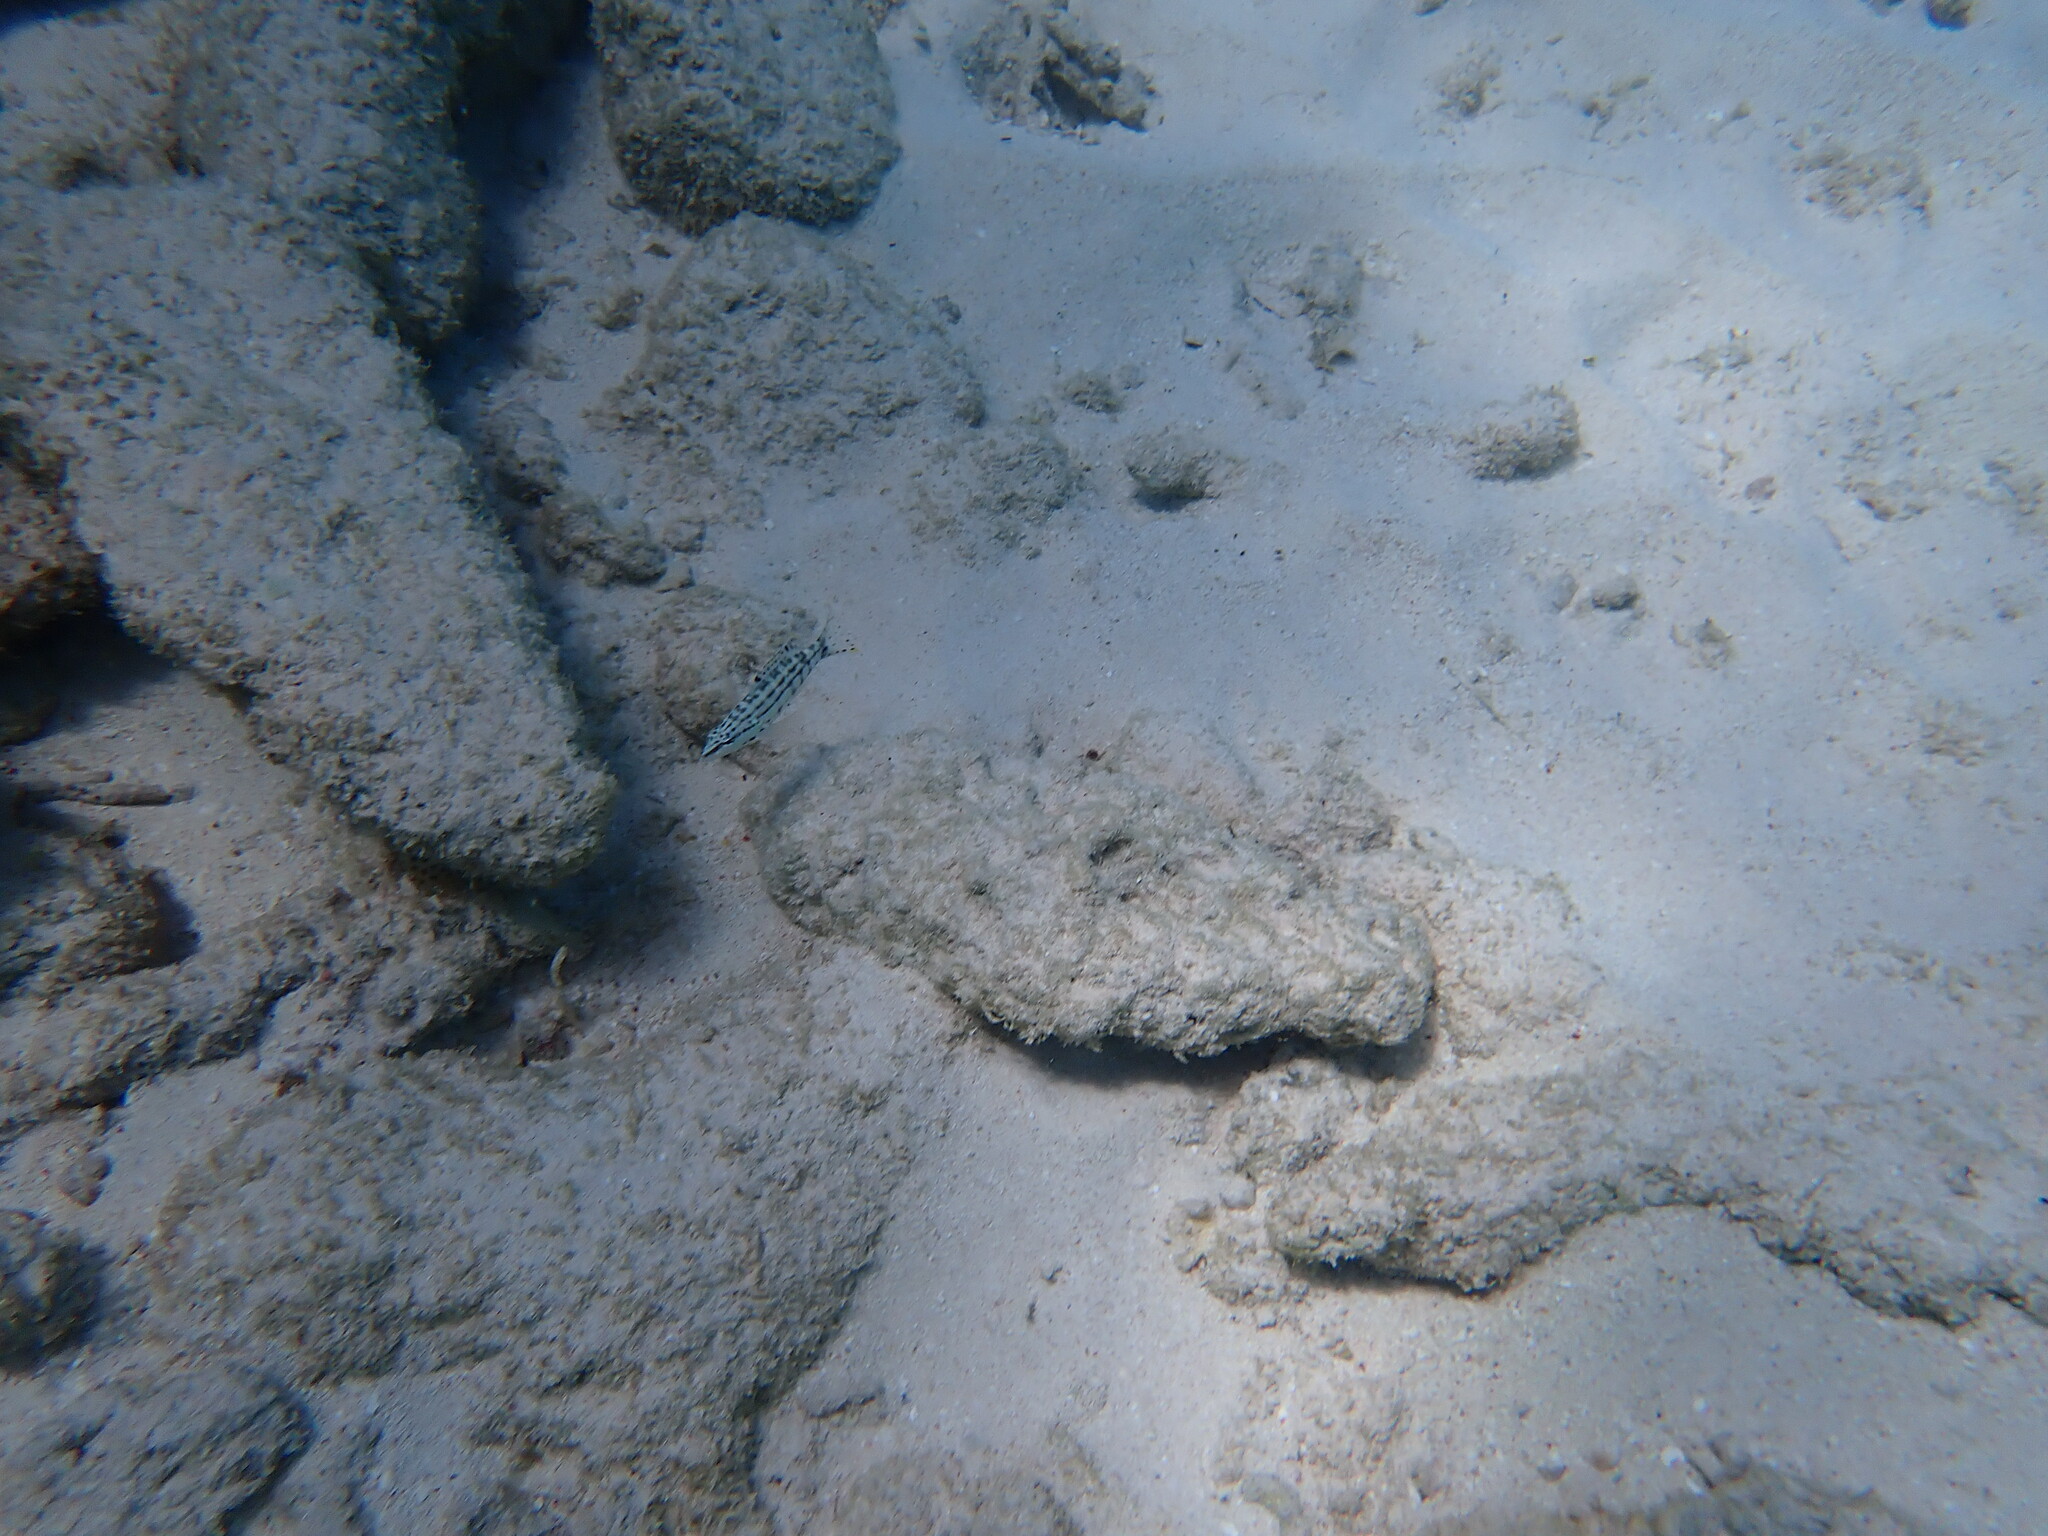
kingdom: Animalia
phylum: Chordata
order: Perciformes
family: Serranidae
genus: Serranus
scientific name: Serranus tigrinus
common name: Harlequin bass
